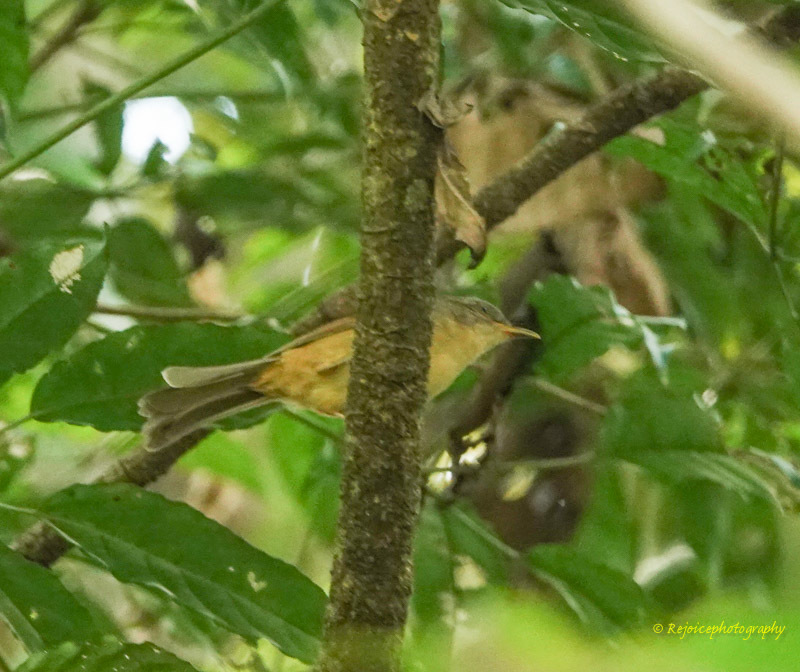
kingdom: Animalia
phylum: Chordata
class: Aves
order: Passeriformes
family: Pellorneidae
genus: Alcippe
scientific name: Alcippe poioicephala
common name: Brown-cheeked fulvetta
